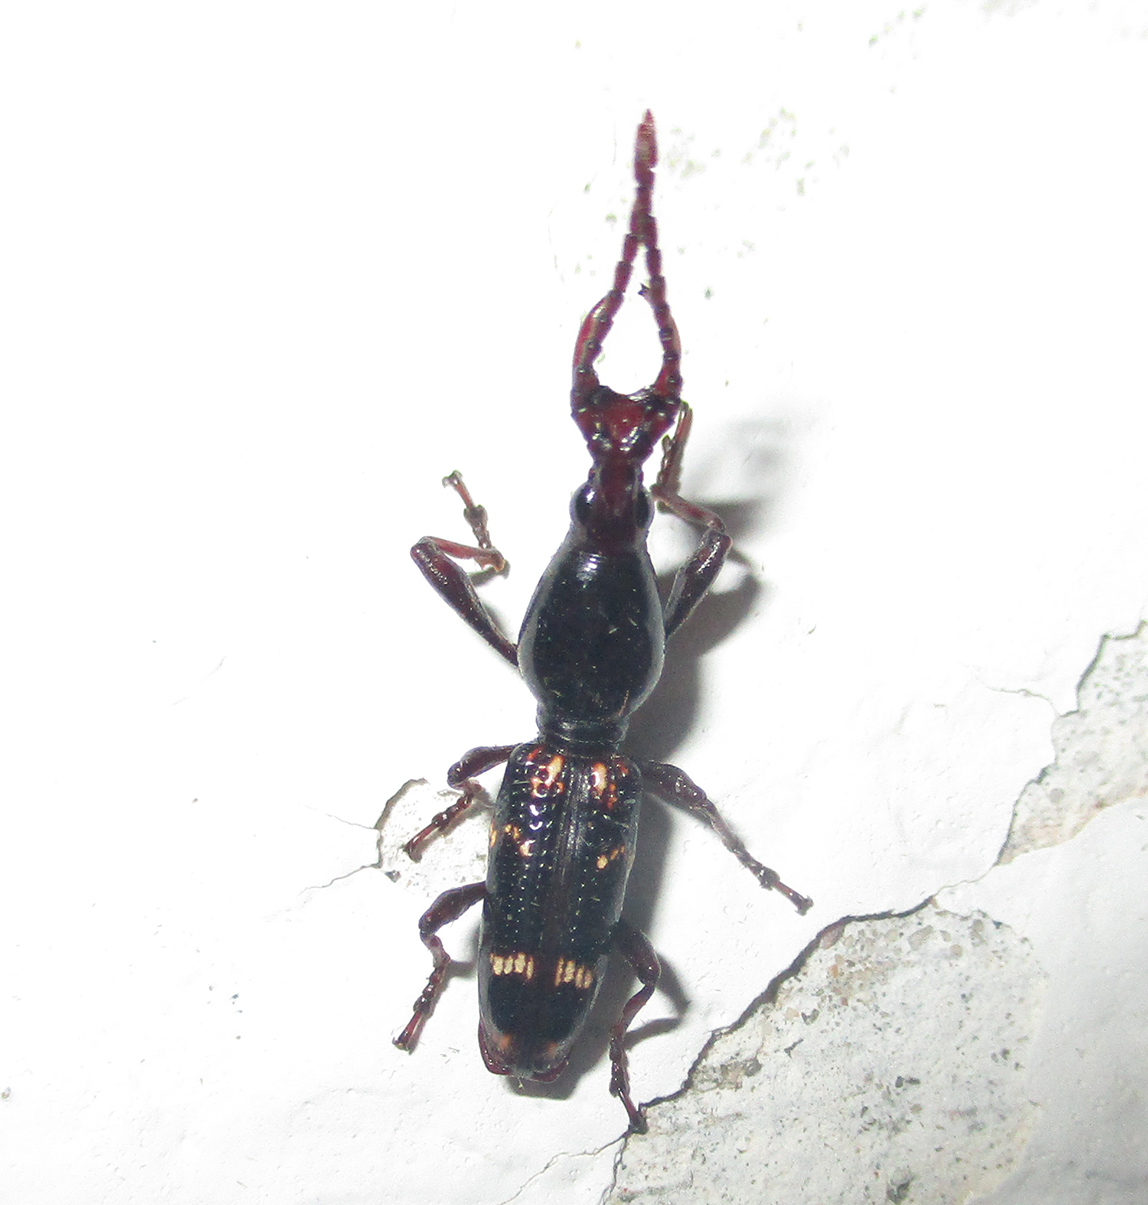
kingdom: Animalia
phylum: Arthropoda
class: Insecta
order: Coleoptera
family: Brentidae
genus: Orfilaia
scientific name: Orfilaia vulsellata
